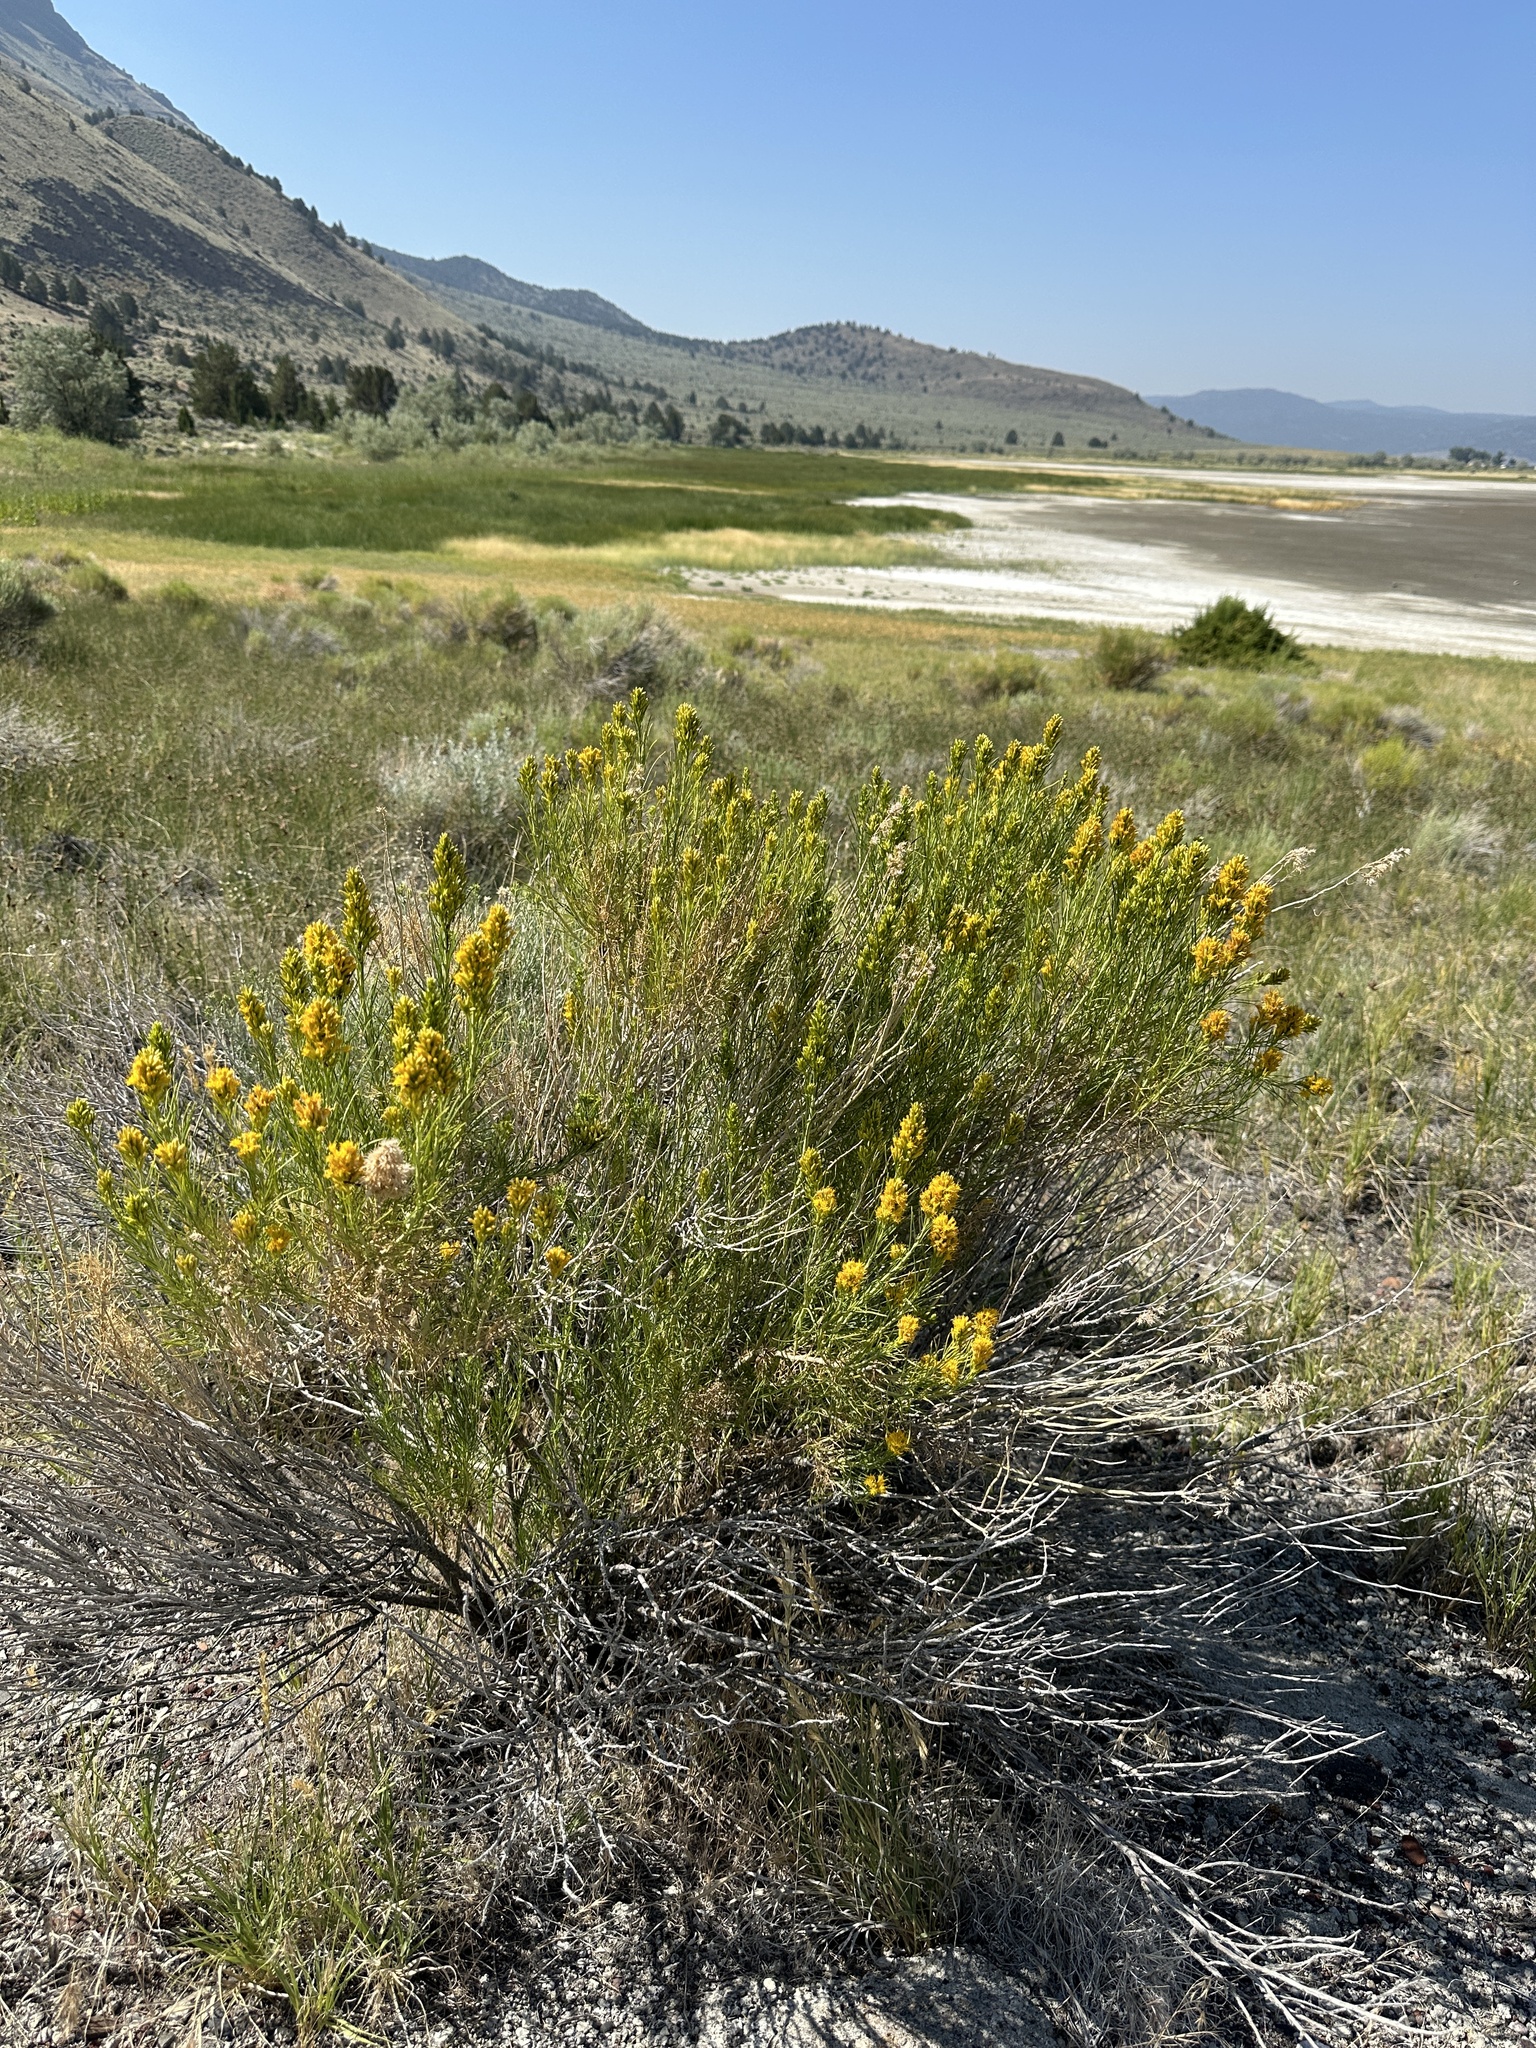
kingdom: Plantae
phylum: Tracheophyta
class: Magnoliopsida
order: Asterales
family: Asteraceae
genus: Ericameria
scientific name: Ericameria nauseosa
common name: Rubber rabbitbrush
